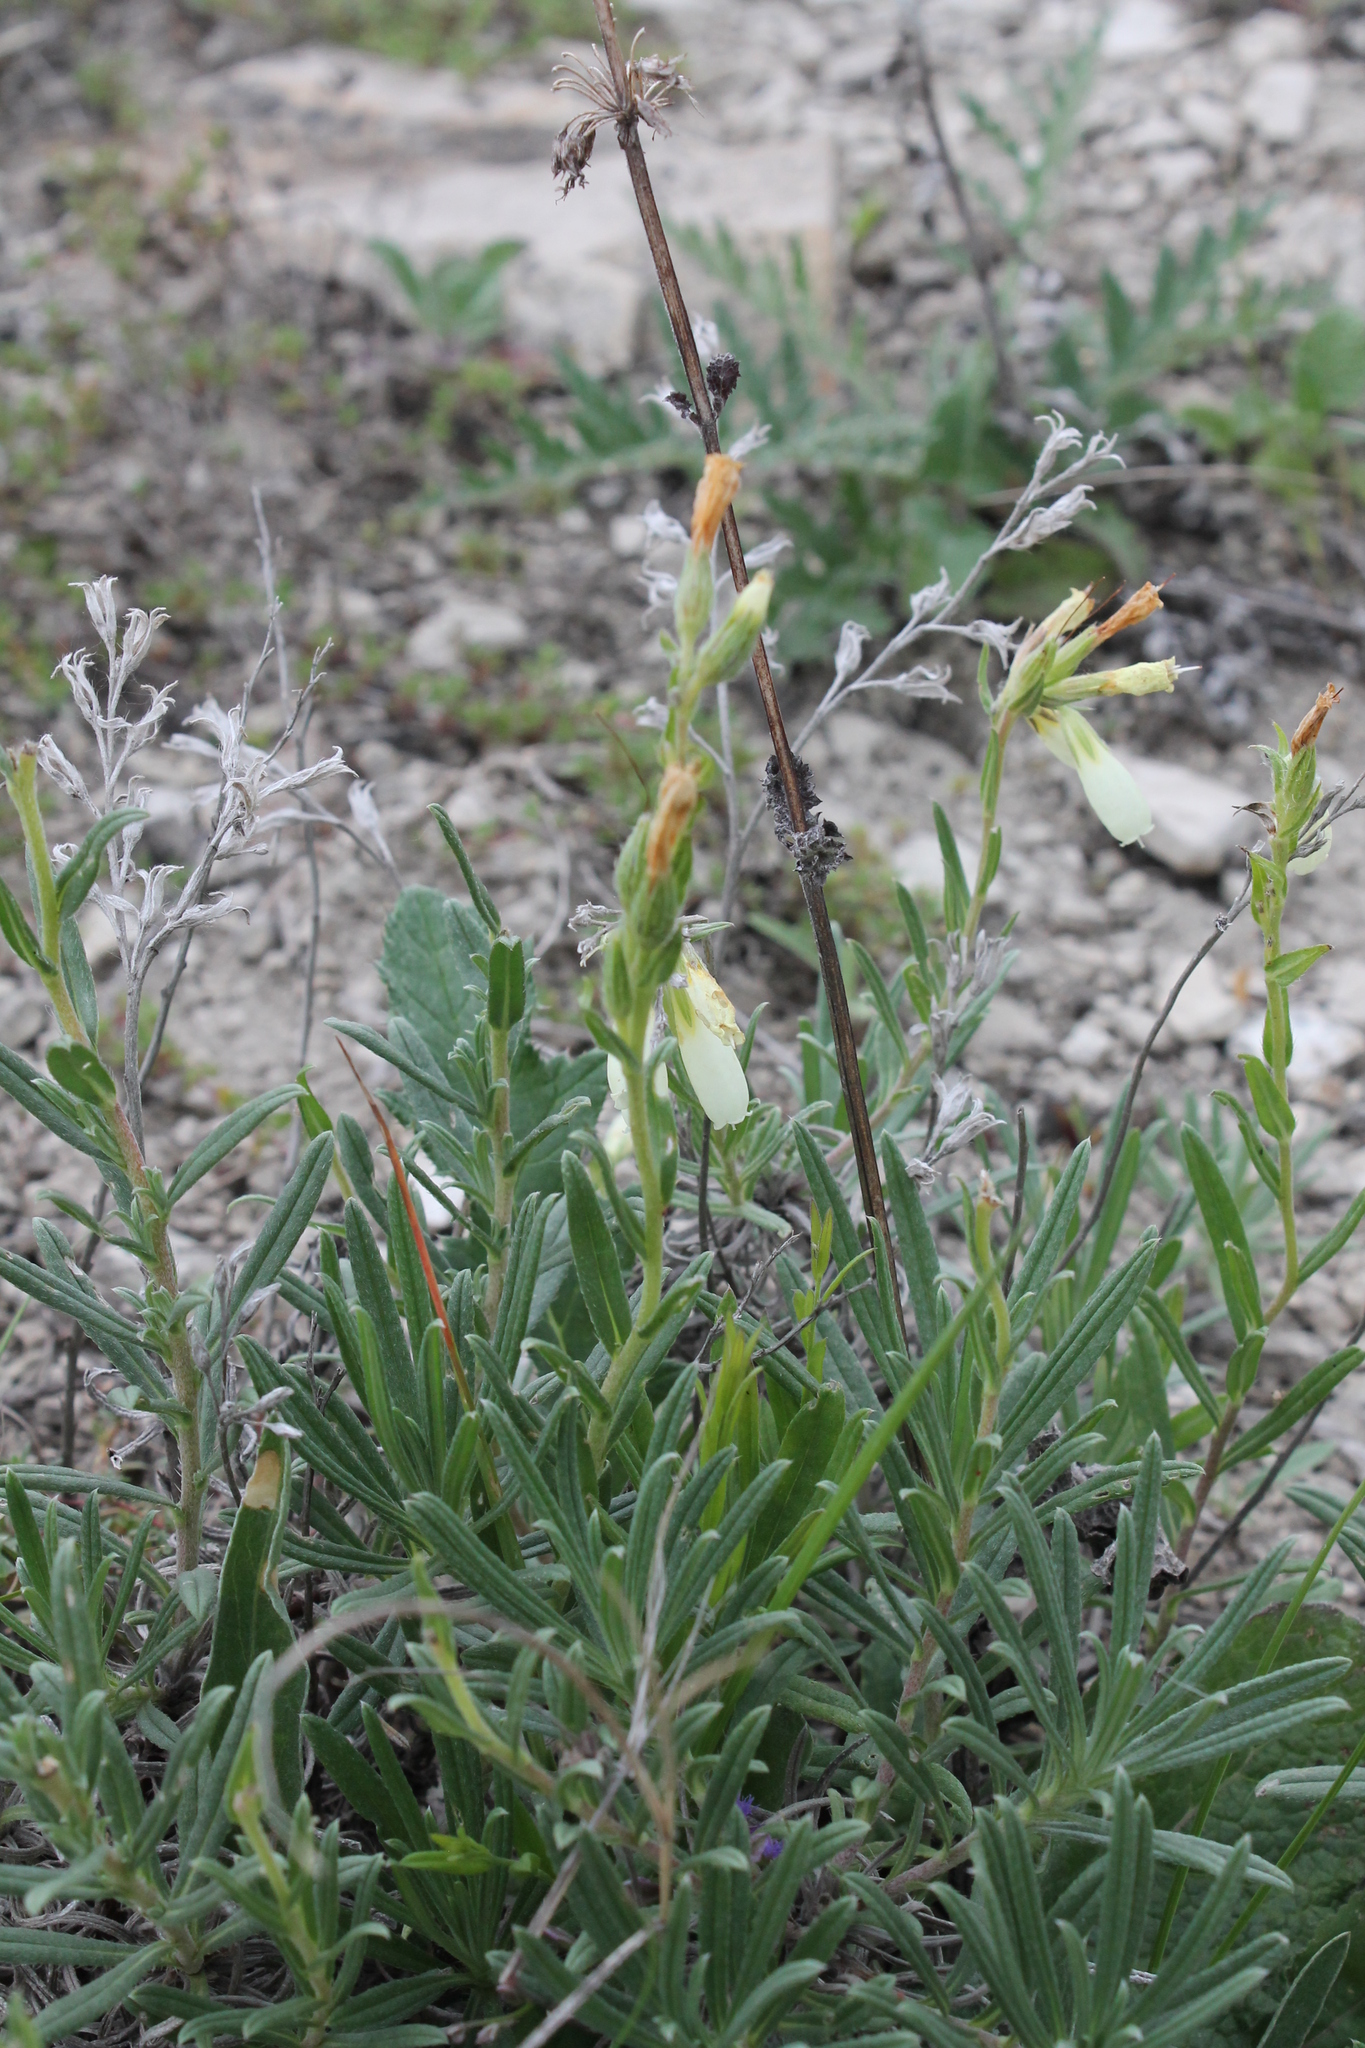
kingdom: Plantae
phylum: Tracheophyta
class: Magnoliopsida
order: Boraginales
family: Boraginaceae
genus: Onosma
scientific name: Onosma simplicissima
